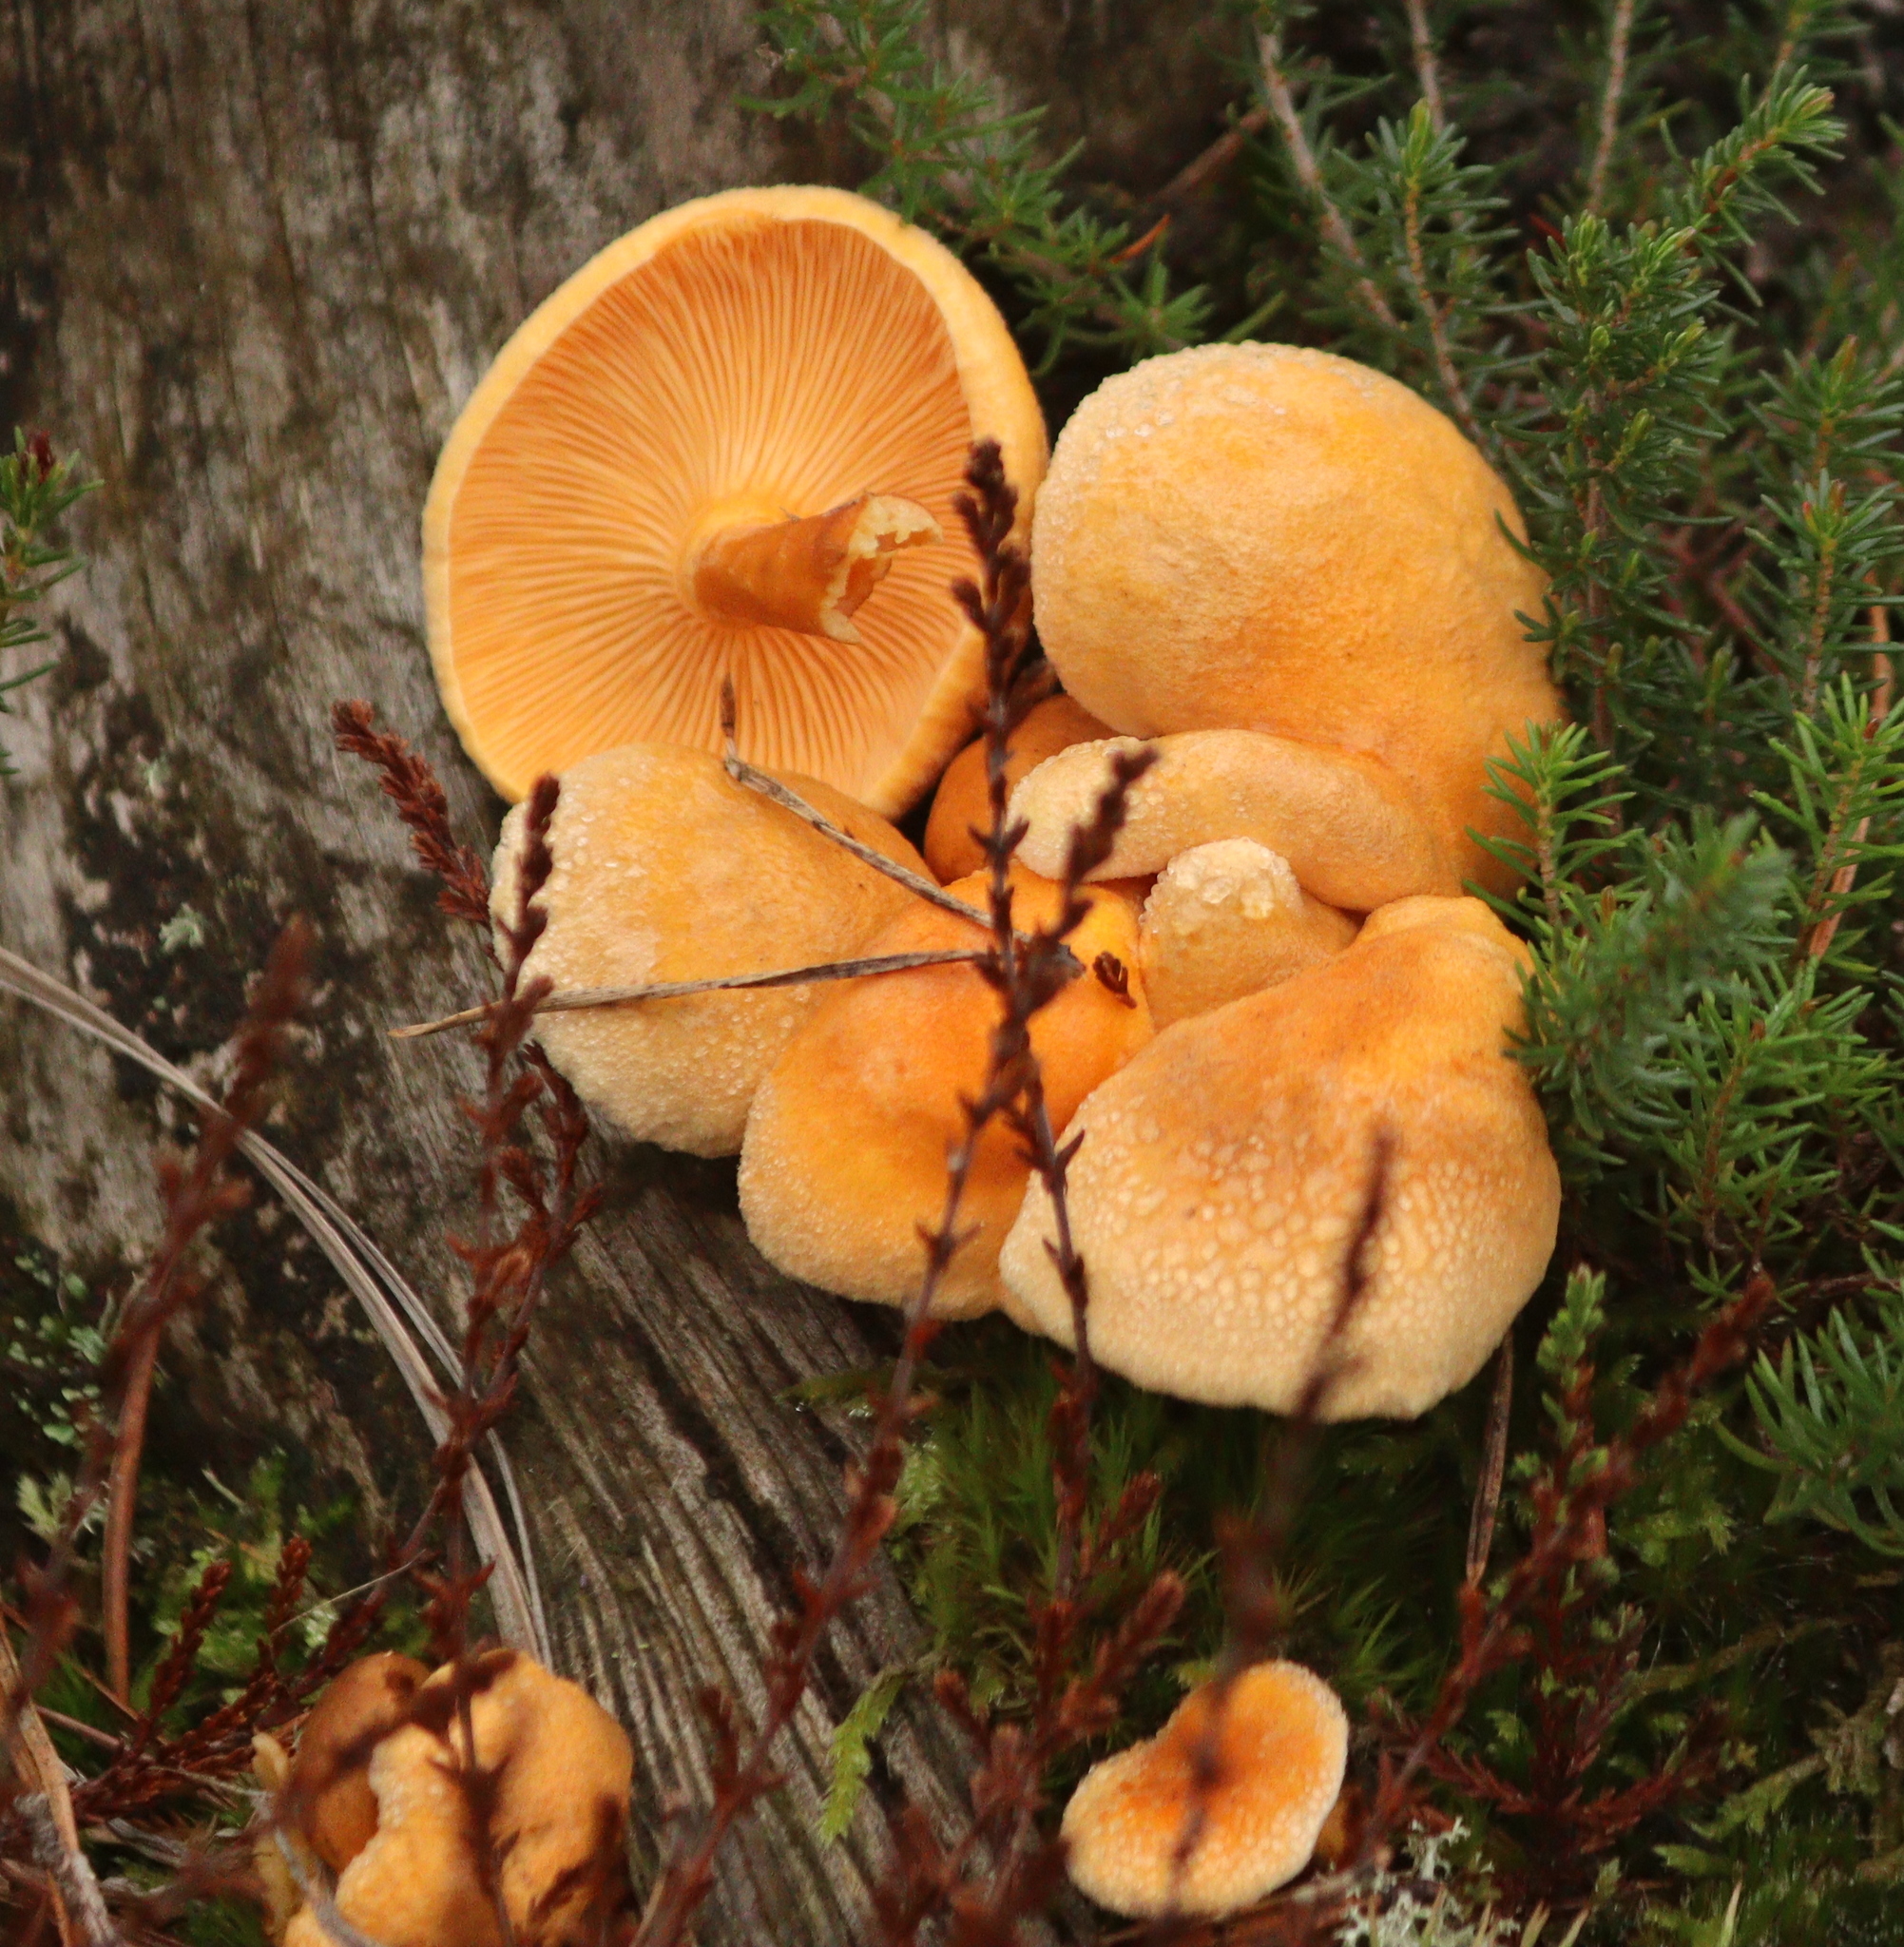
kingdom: Fungi
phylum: Basidiomycota
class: Agaricomycetes
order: Boletales
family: Hygrophoropsidaceae
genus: Hygrophoropsis
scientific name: Hygrophoropsis aurantiaca
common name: False chanterelle
